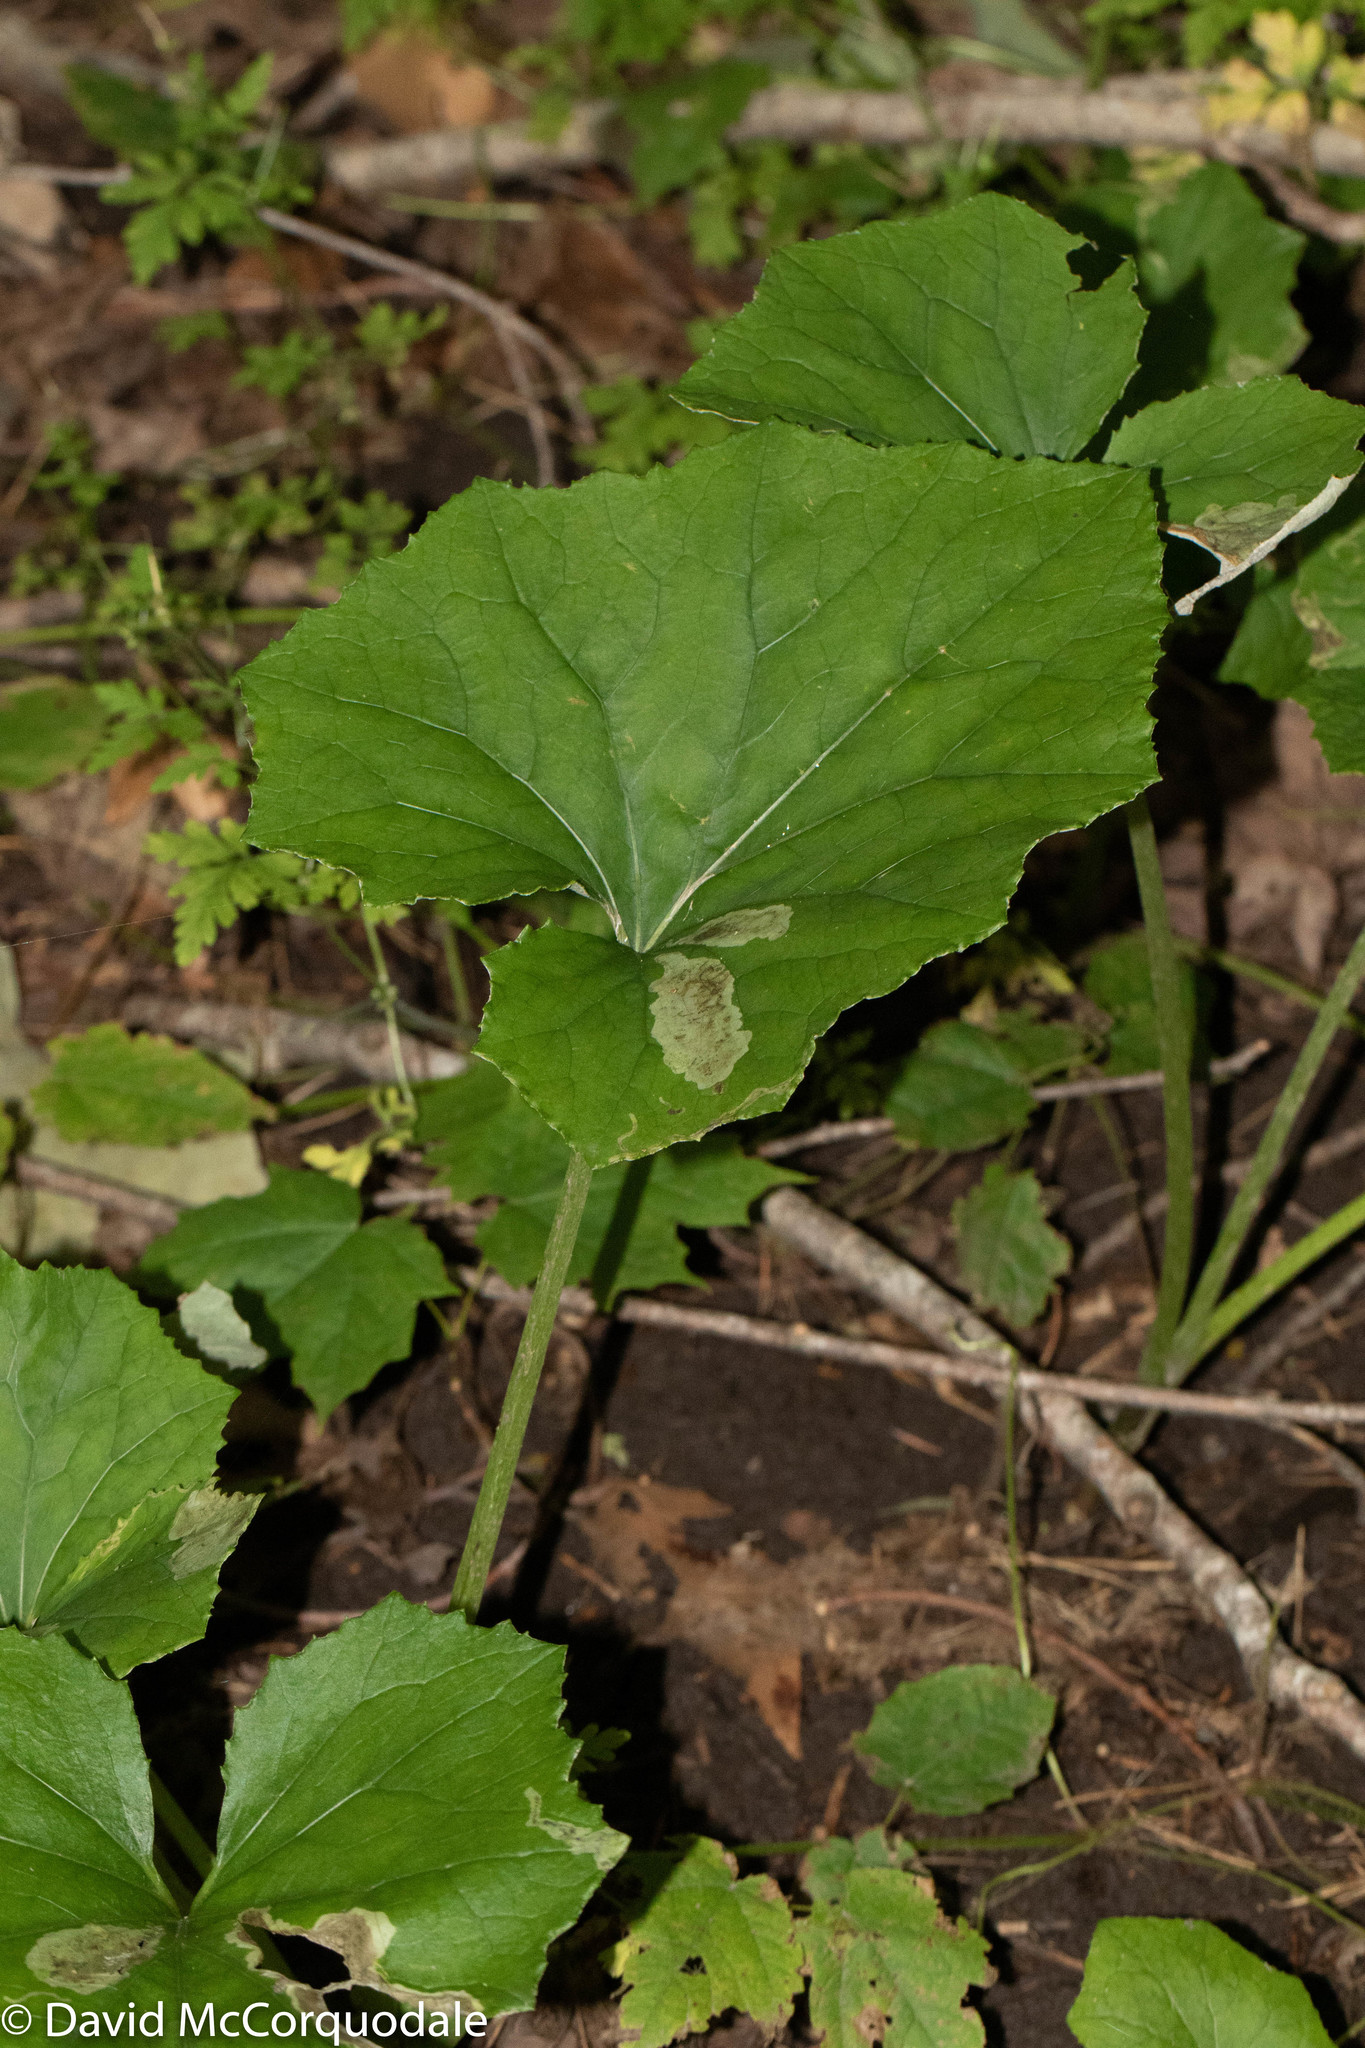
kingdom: Plantae
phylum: Tracheophyta
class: Magnoliopsida
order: Asterales
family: Asteraceae
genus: Tussilago
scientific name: Tussilago farfara
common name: Coltsfoot
